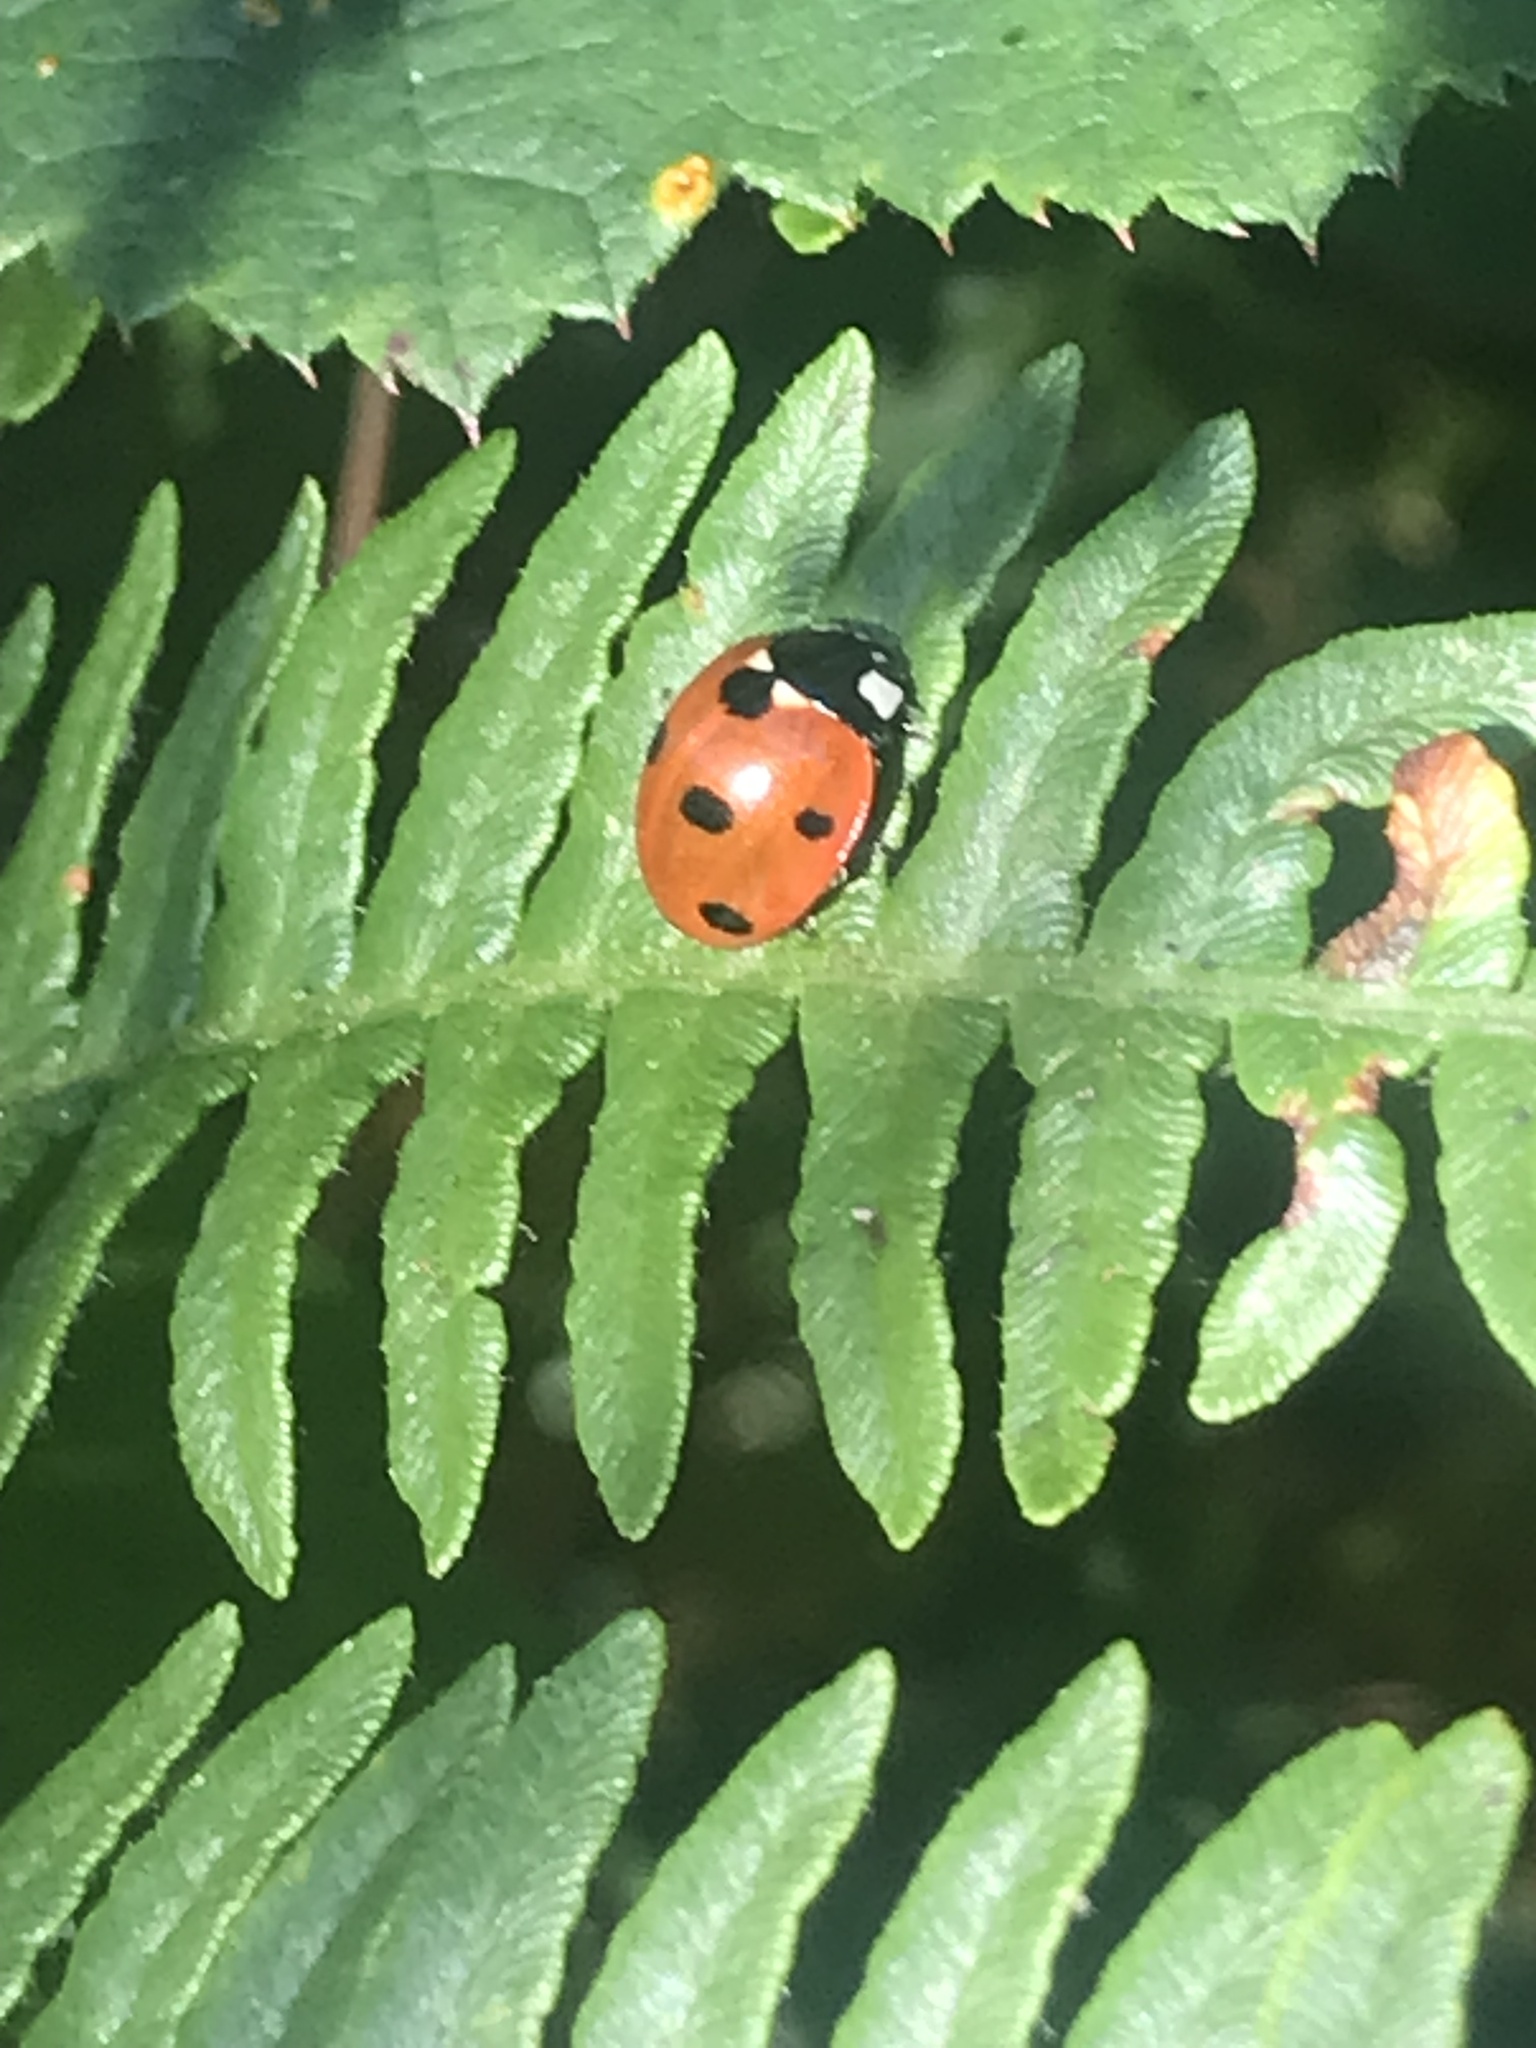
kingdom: Animalia
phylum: Arthropoda
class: Insecta
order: Coleoptera
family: Coccinellidae
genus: Coccinella
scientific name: Coccinella septempunctata
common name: Sevenspotted lady beetle
